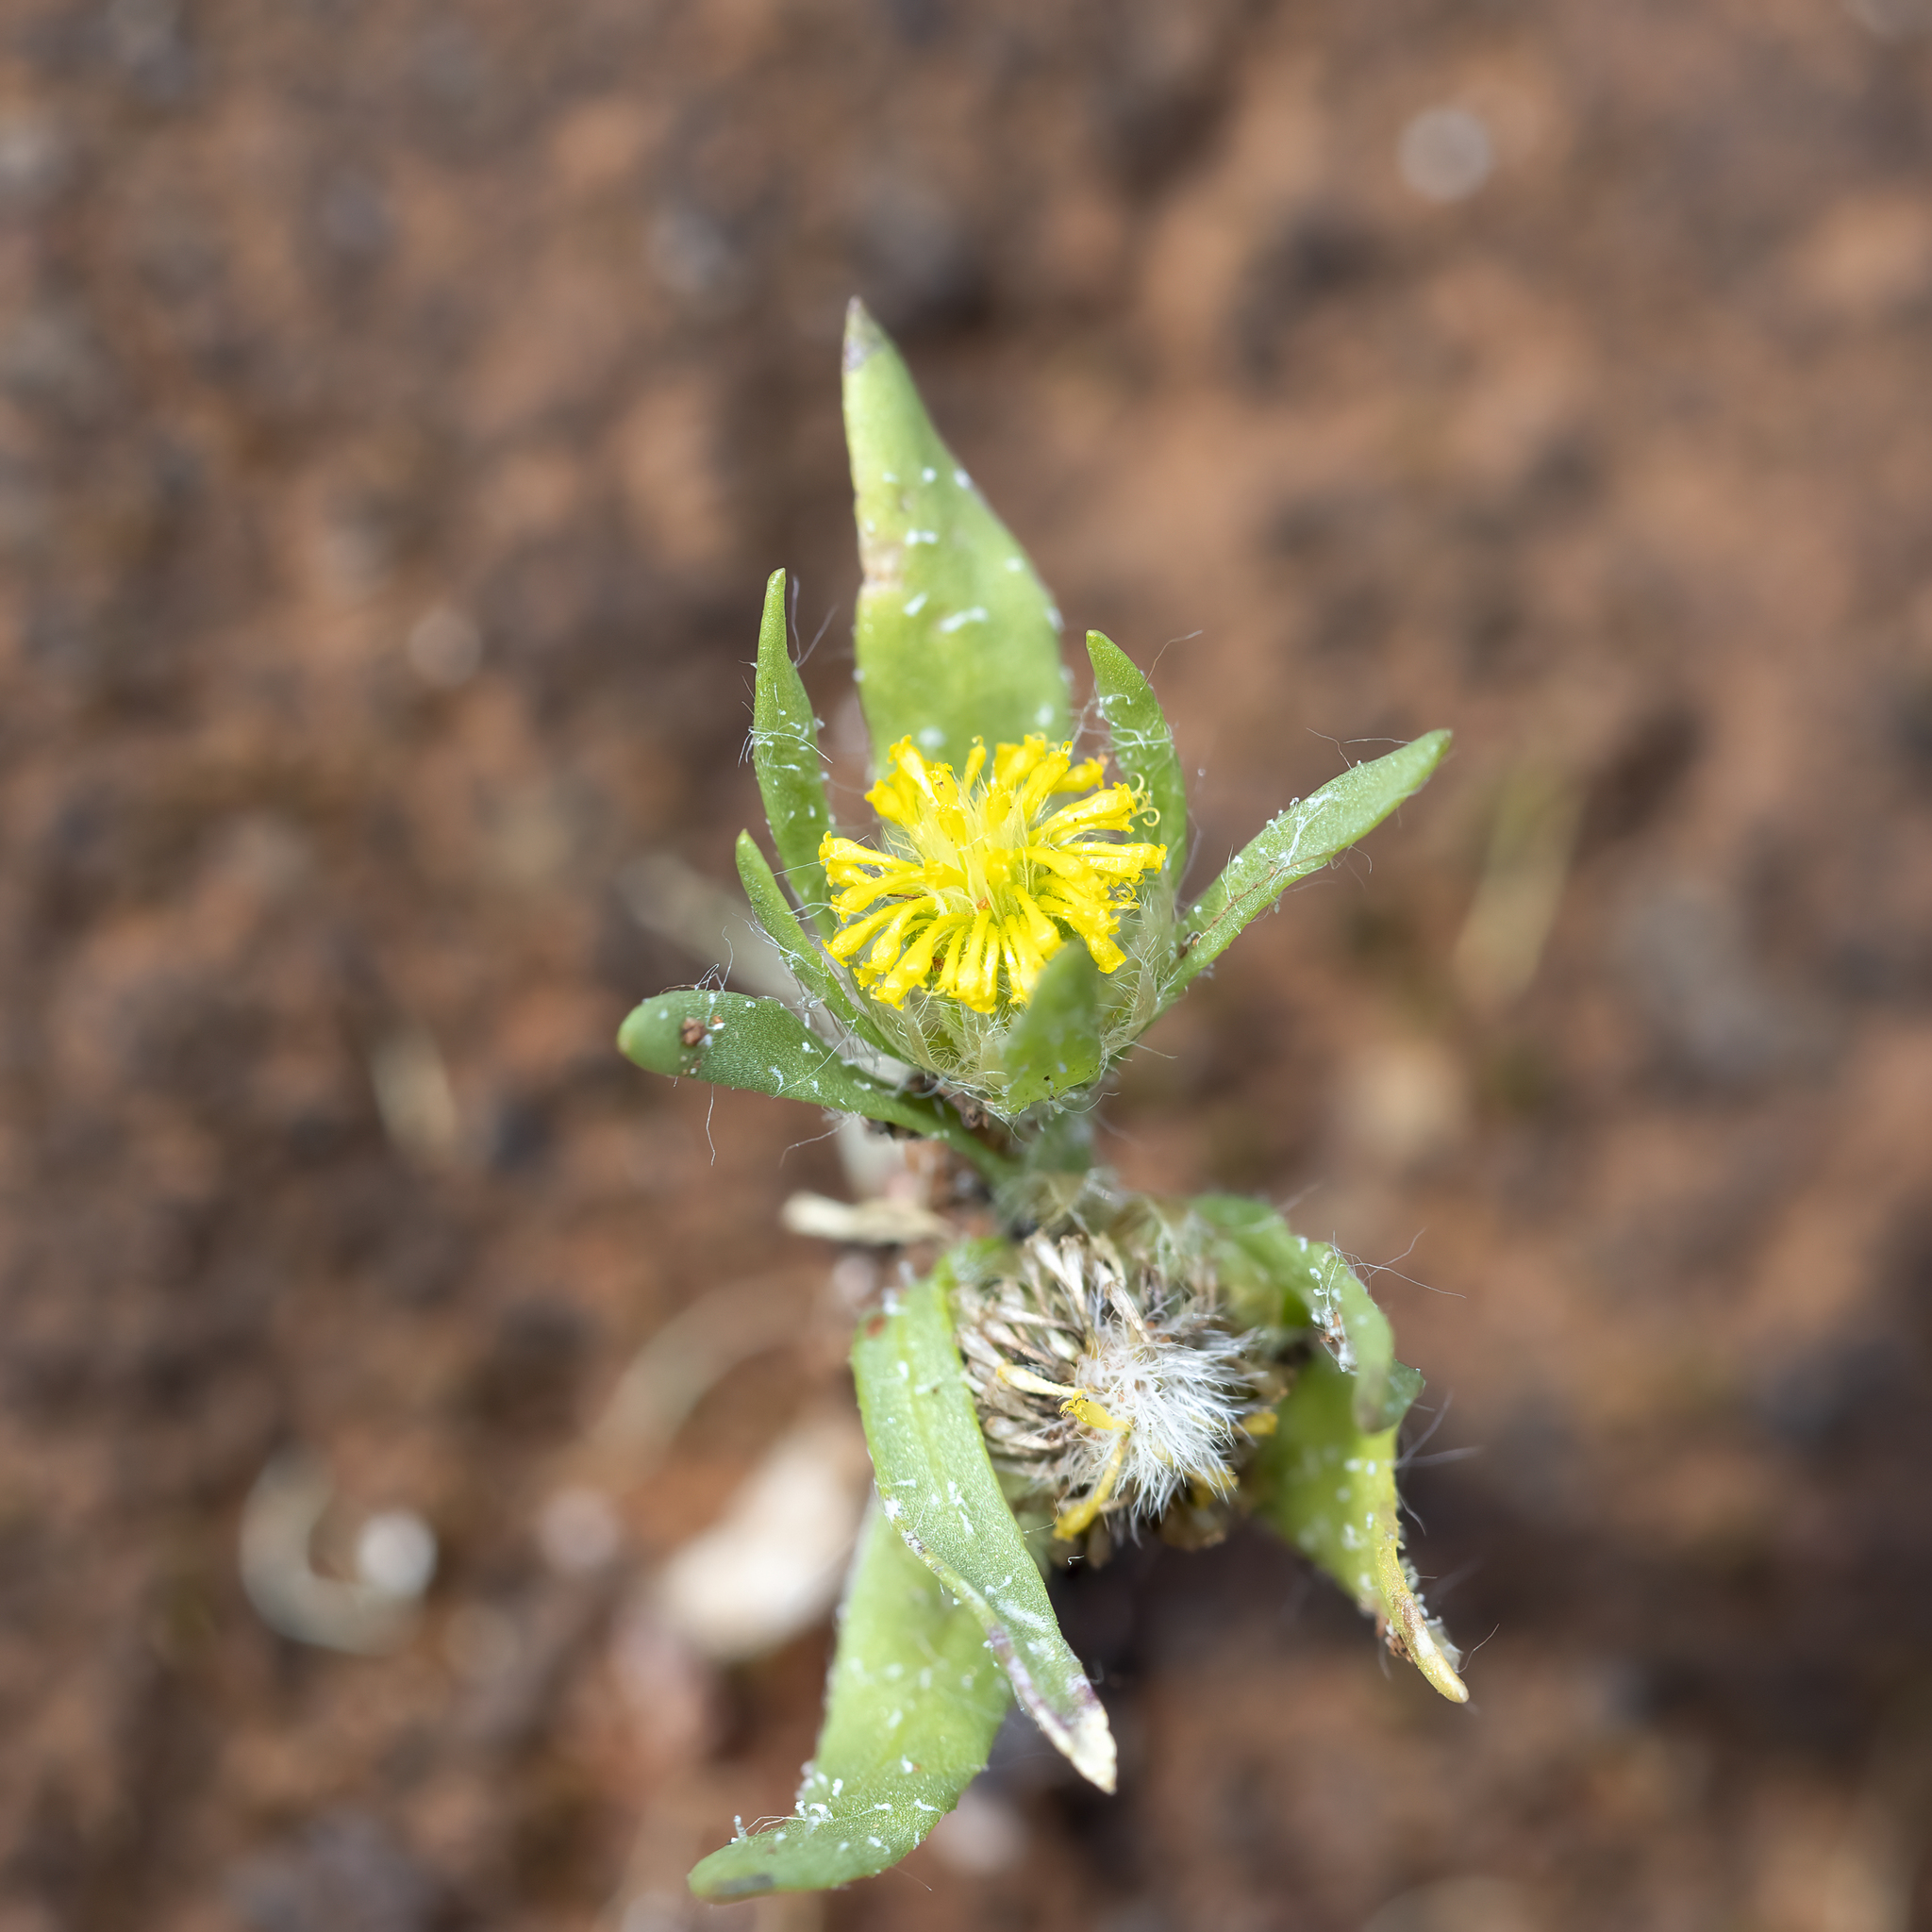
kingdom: Plantae
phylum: Tracheophyta
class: Magnoliopsida
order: Asterales
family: Asteraceae
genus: Triptilodiscus
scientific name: Triptilodiscus pygmaeus
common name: Common sunray
